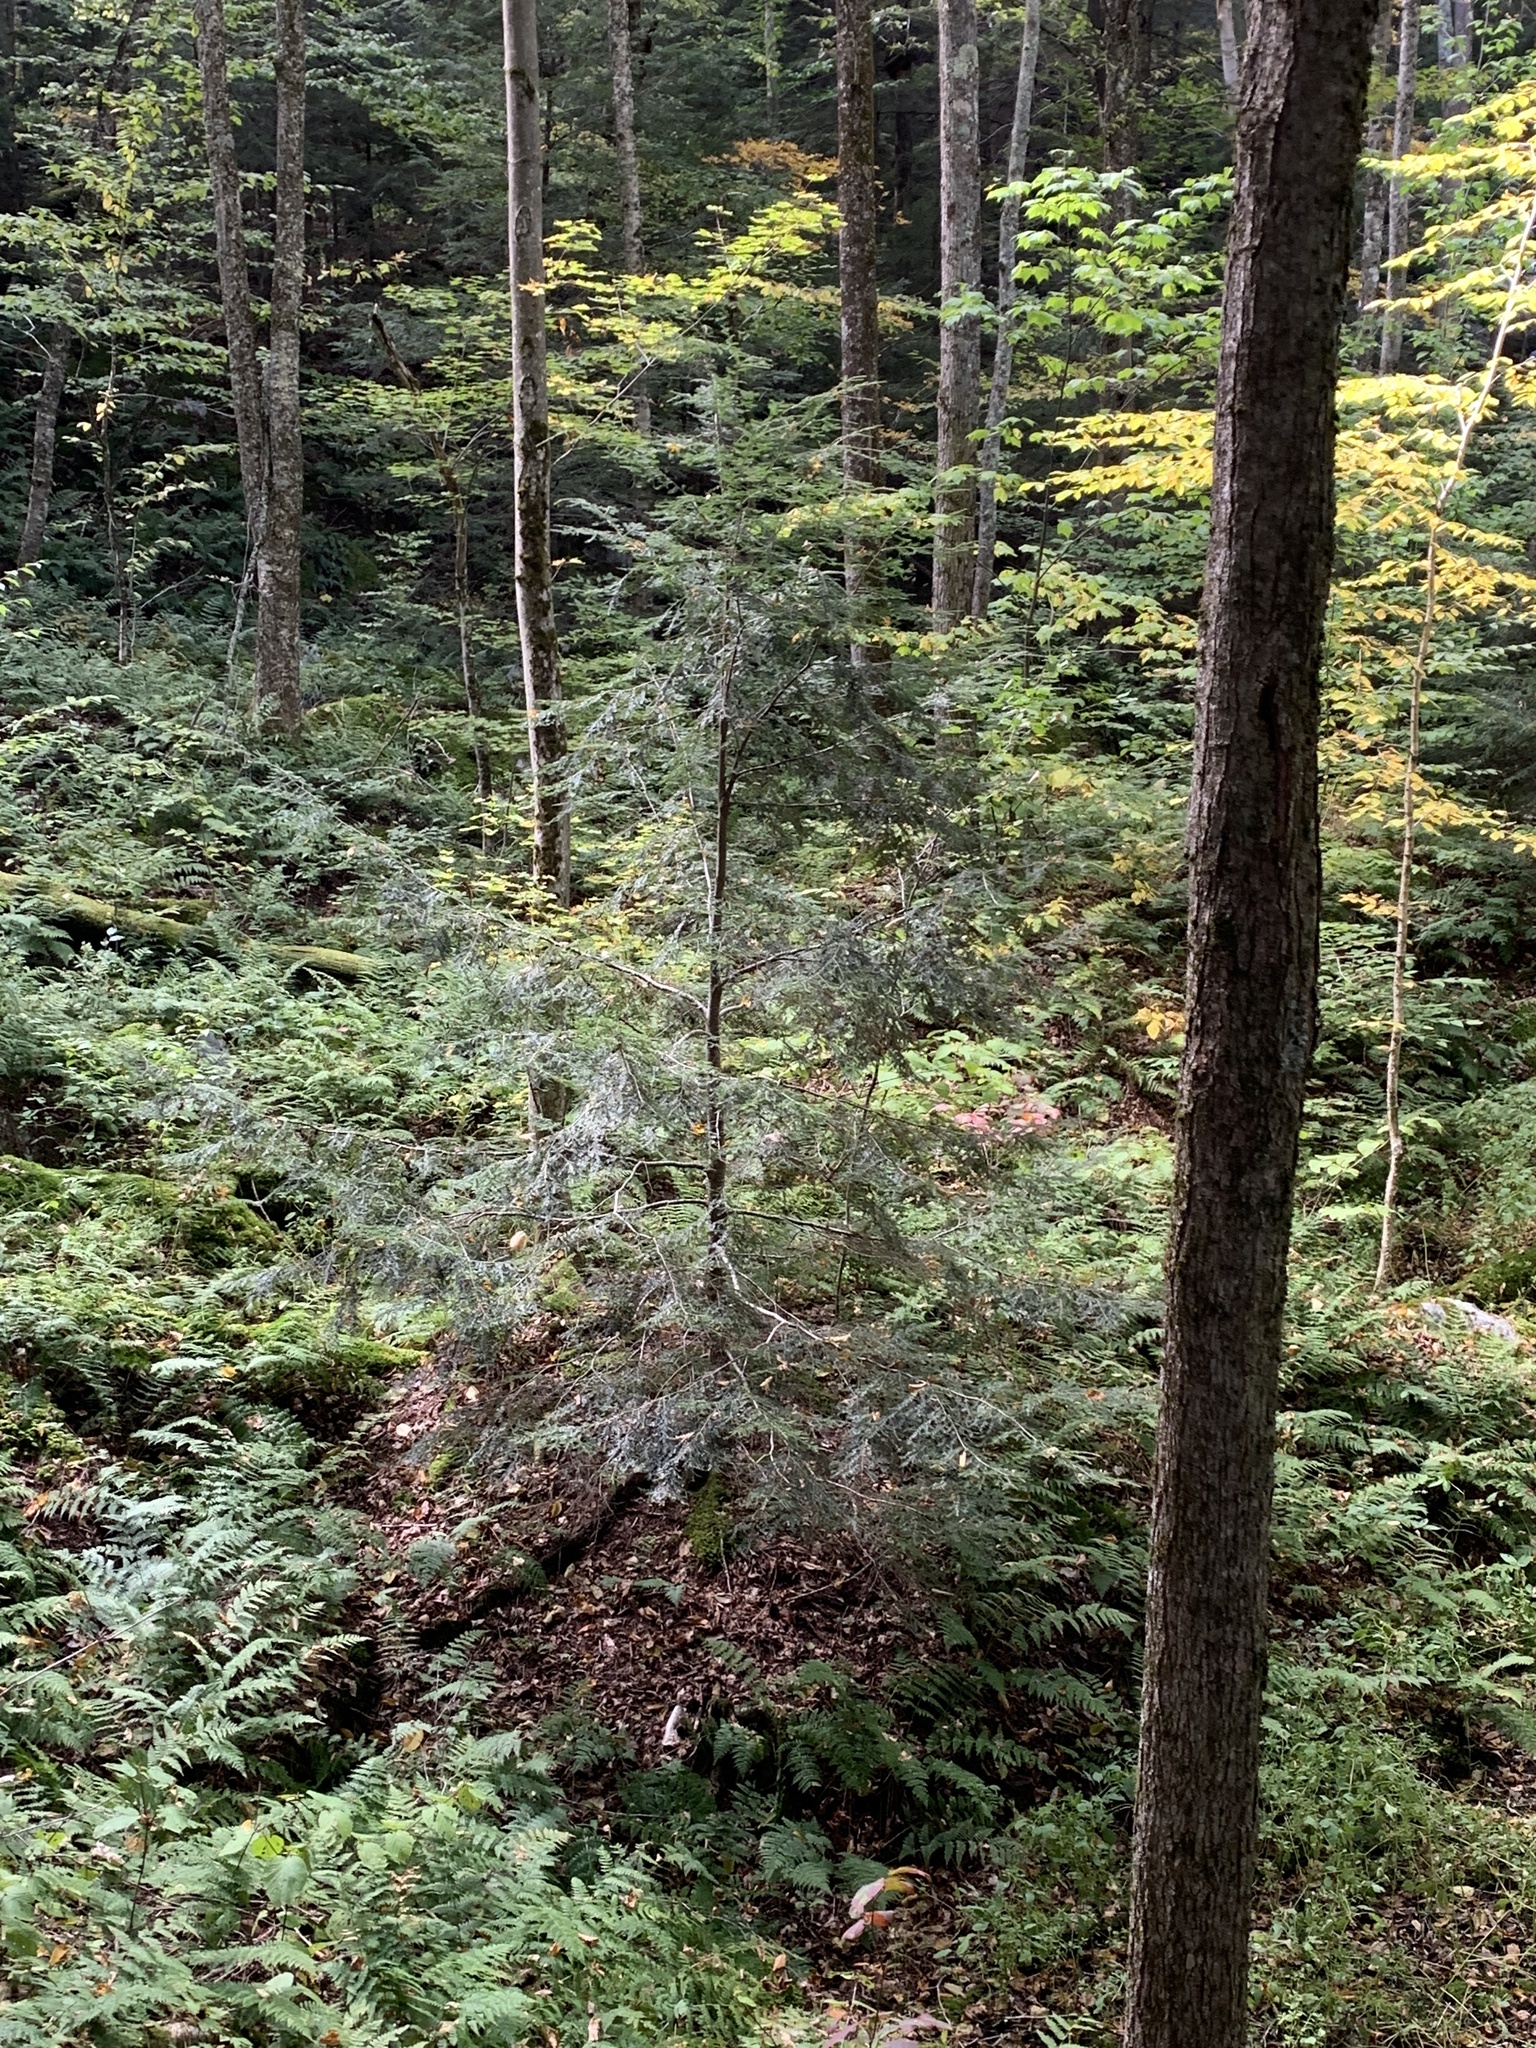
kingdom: Plantae
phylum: Tracheophyta
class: Pinopsida
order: Pinales
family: Pinaceae
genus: Tsuga
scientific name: Tsuga canadensis
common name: Eastern hemlock
